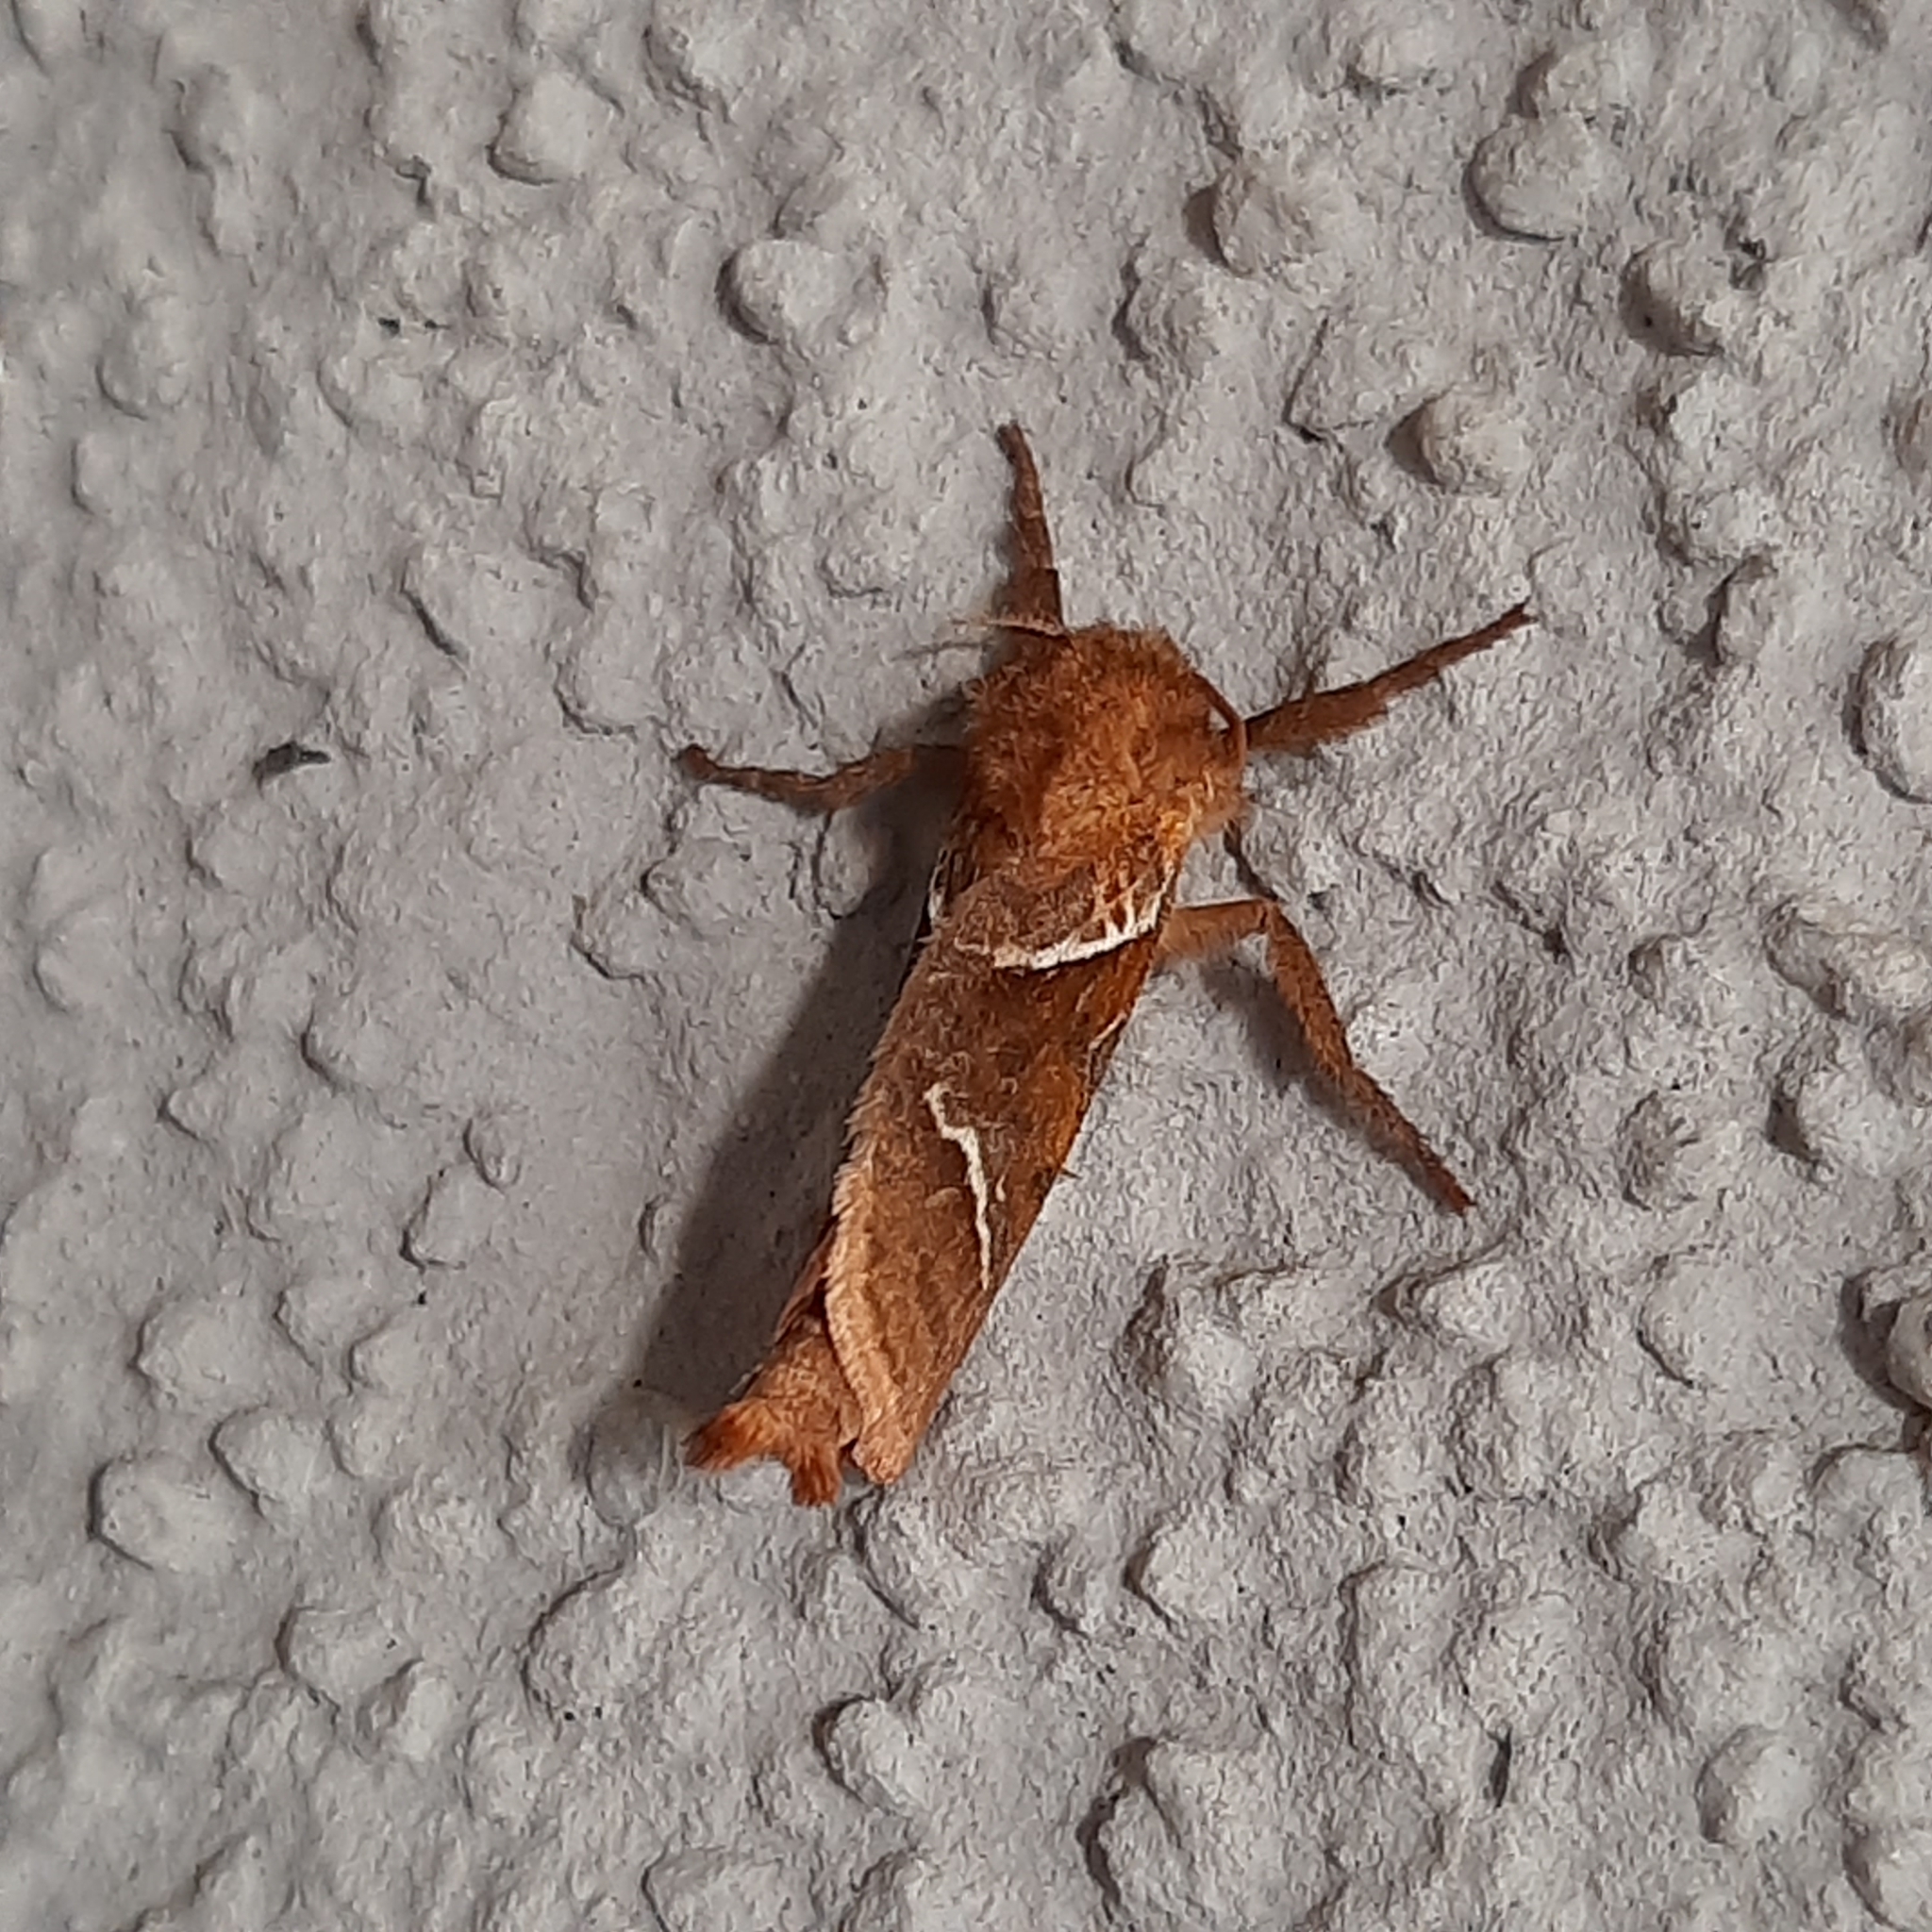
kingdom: Animalia
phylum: Arthropoda
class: Insecta
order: Lepidoptera
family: Hepialidae
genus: Triodia
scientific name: Triodia sylvina
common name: Orange swift
